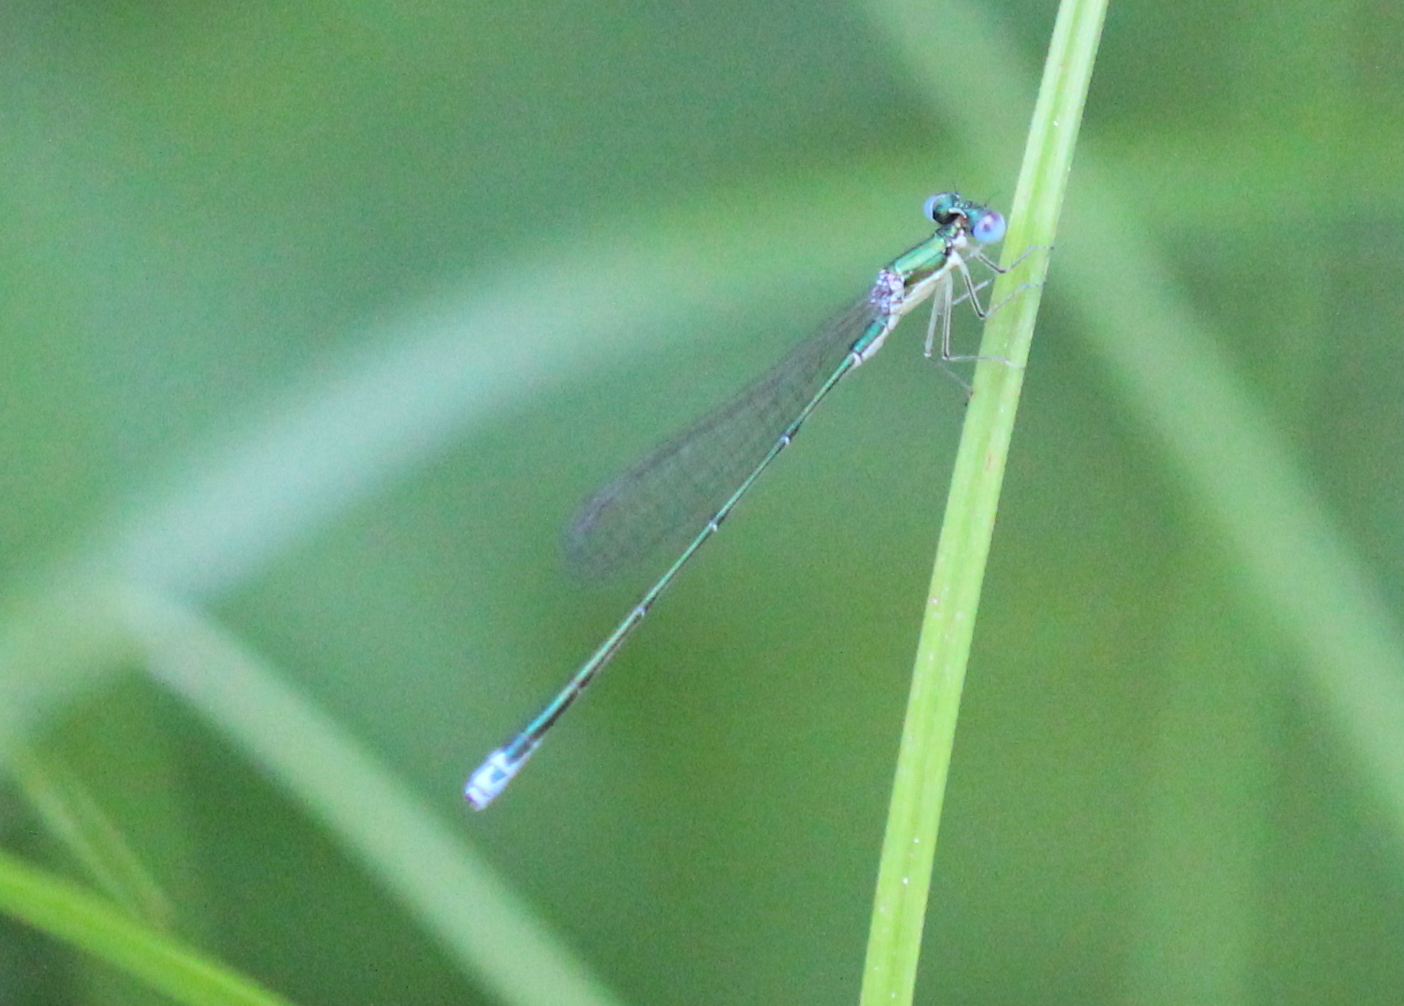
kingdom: Animalia
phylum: Arthropoda
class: Insecta
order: Odonata
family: Coenagrionidae
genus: Nehalennia
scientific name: Nehalennia irene
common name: Sedge sprite
